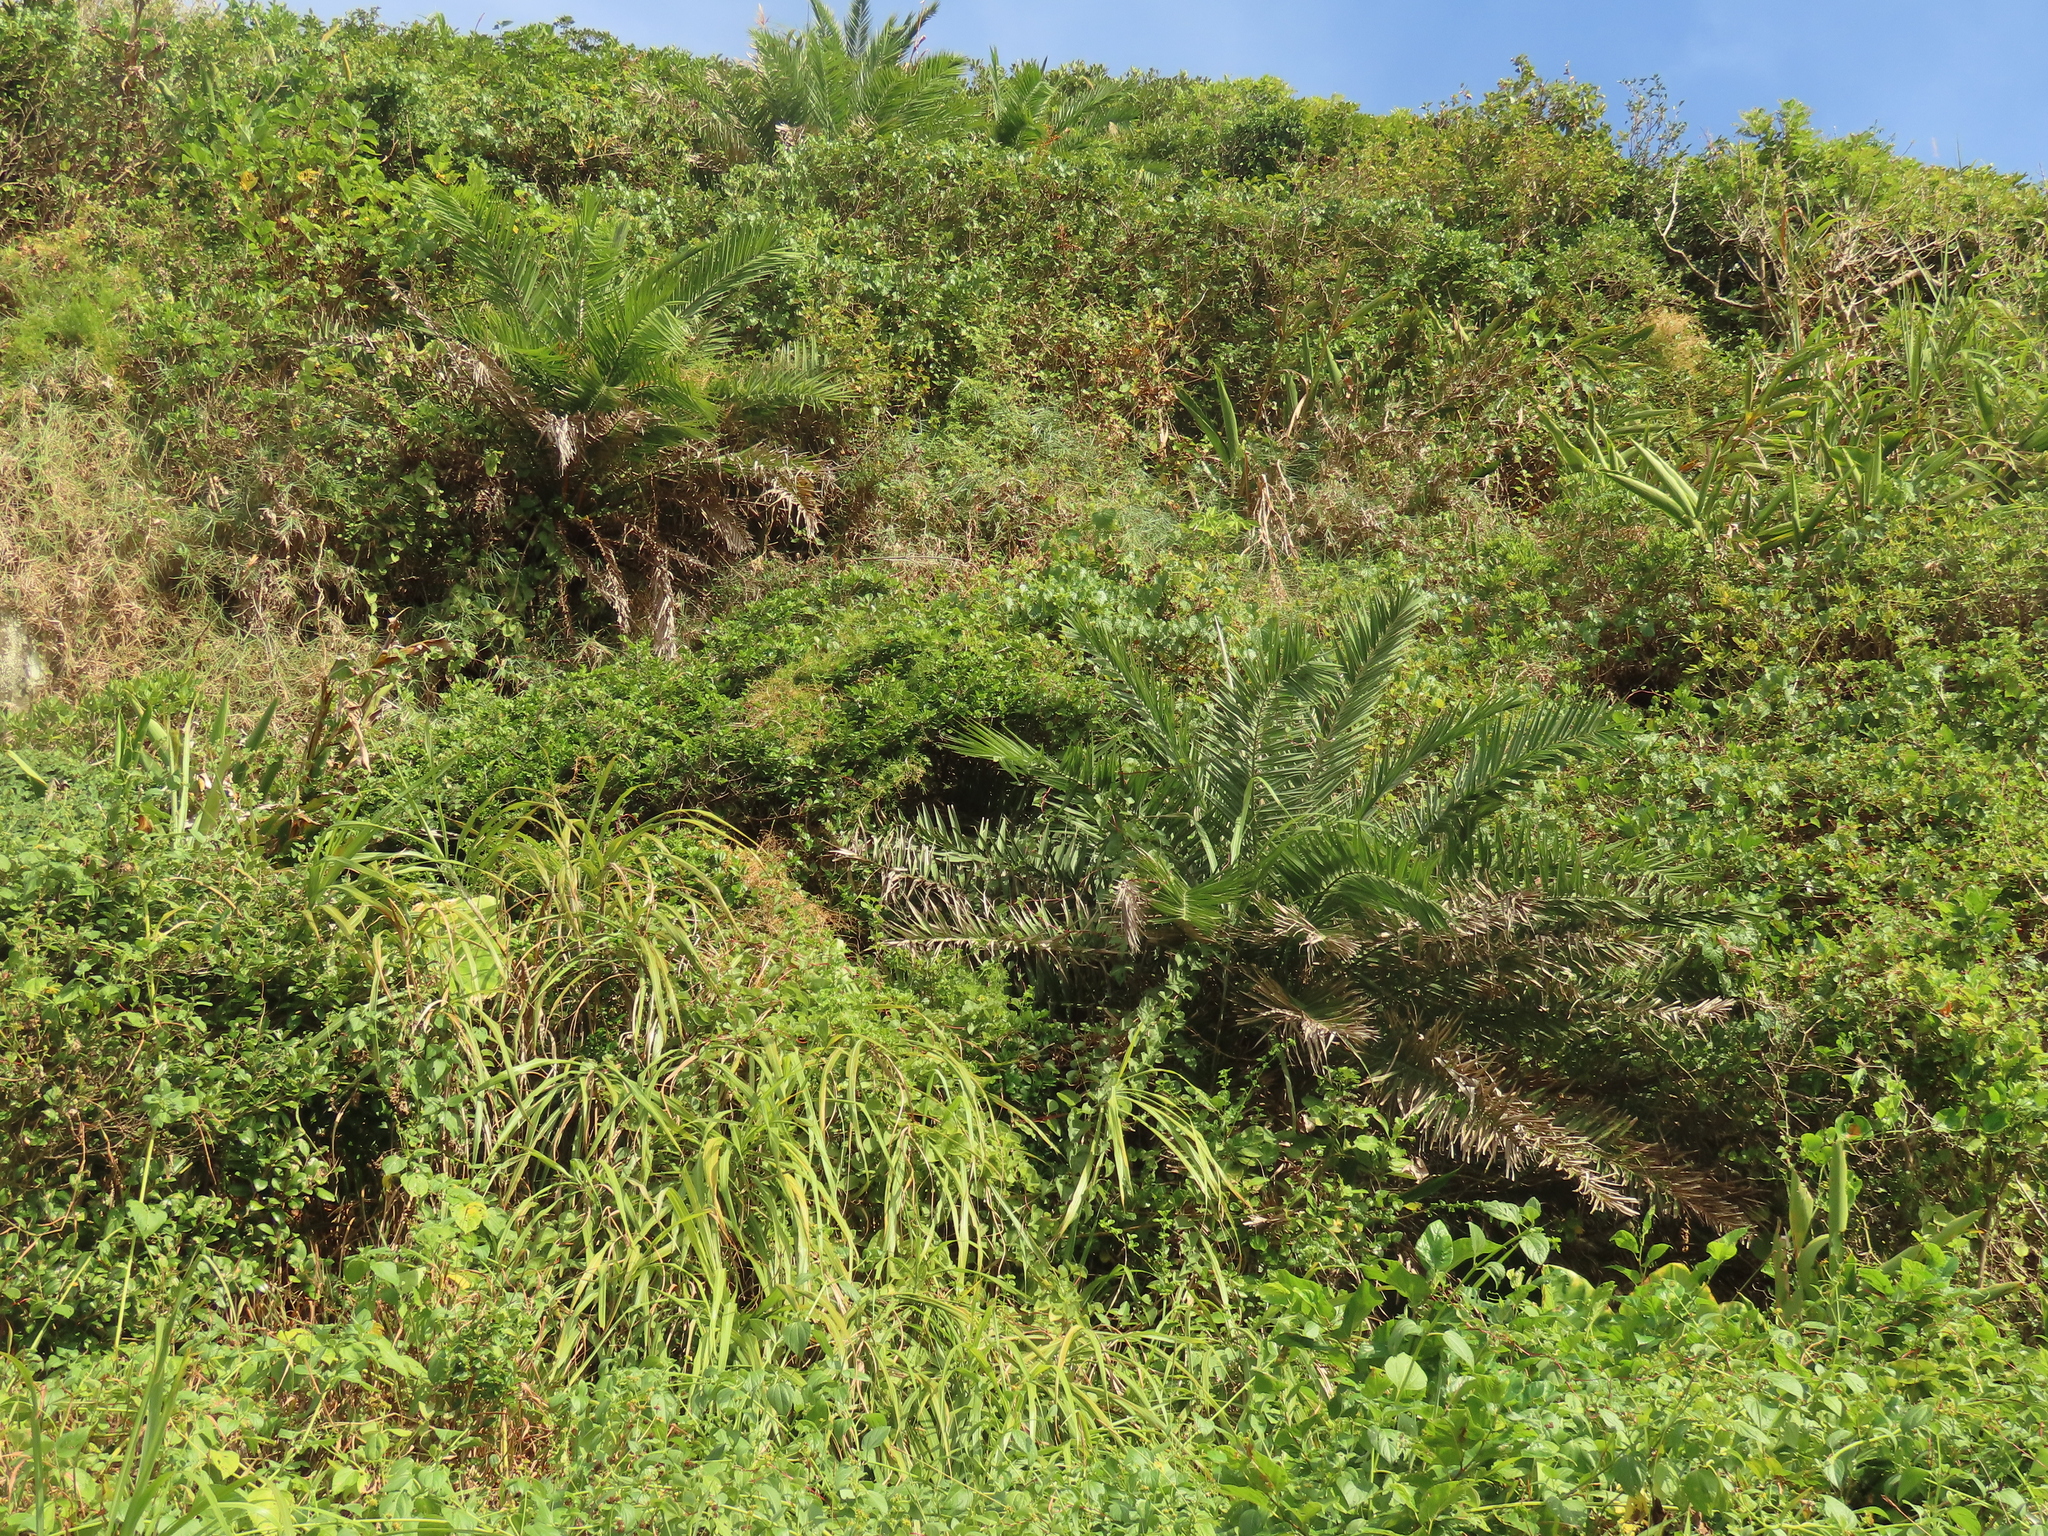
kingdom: Plantae
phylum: Tracheophyta
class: Liliopsida
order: Arecales
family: Arecaceae
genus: Phoenix
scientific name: Phoenix loureiroi
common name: Loureiro's palm
